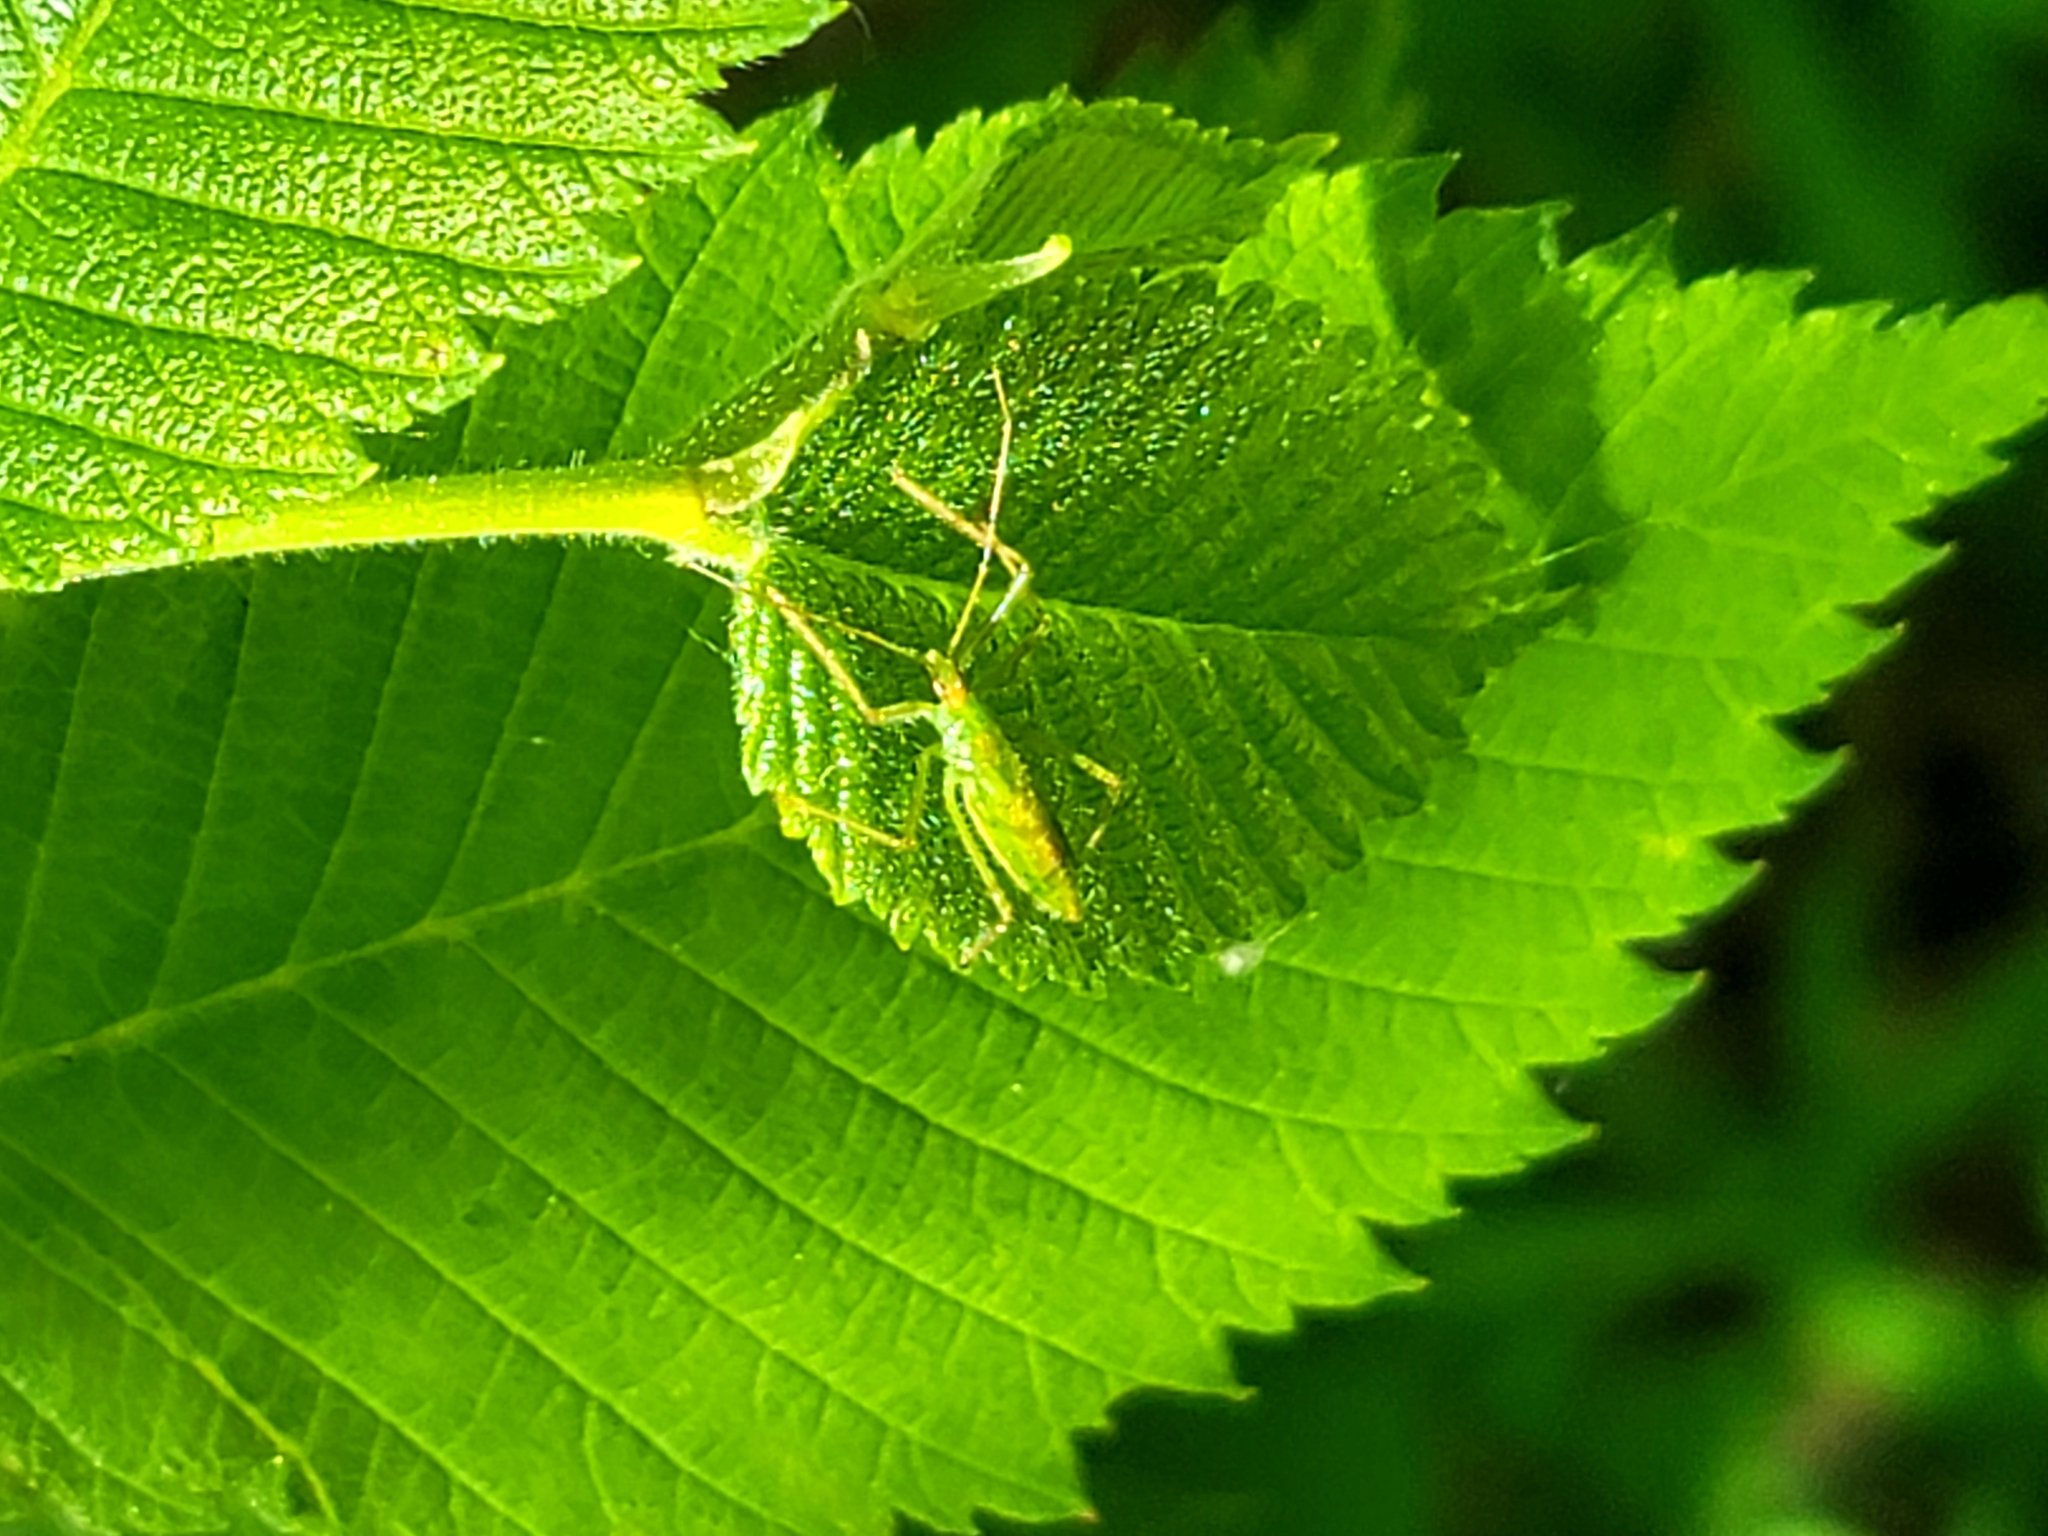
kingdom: Animalia
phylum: Arthropoda
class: Insecta
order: Hemiptera
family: Reduviidae
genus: Zelus
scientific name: Zelus luridus
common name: Pale green assassin bug
